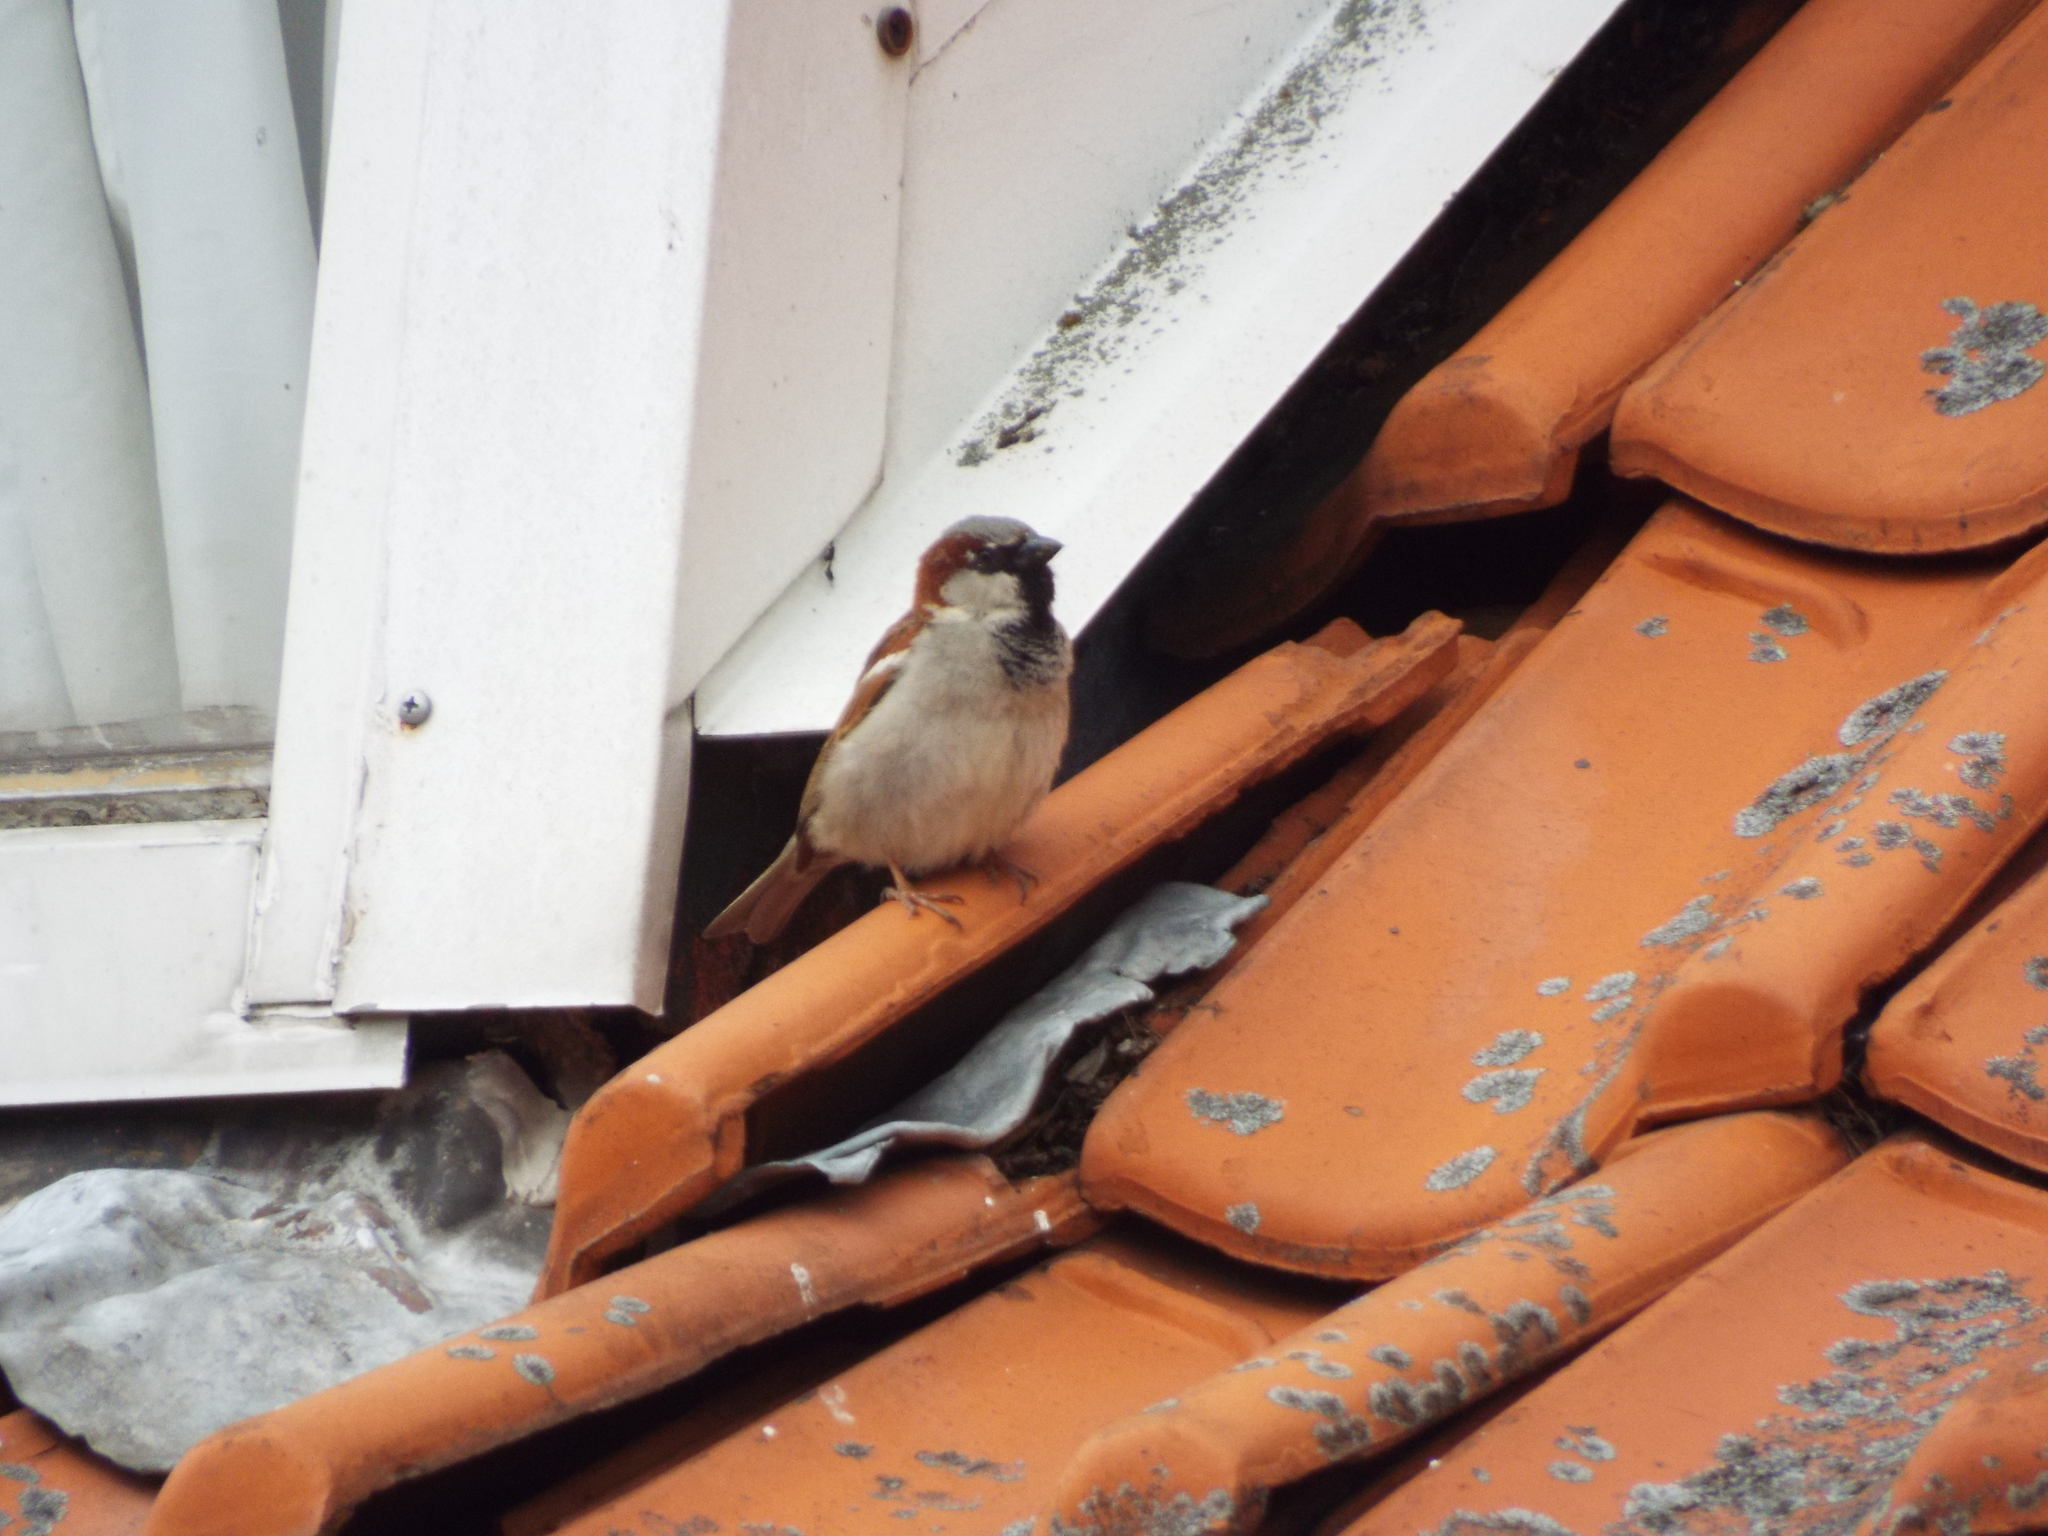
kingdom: Animalia
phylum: Chordata
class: Aves
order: Passeriformes
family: Passeridae
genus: Passer
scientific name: Passer domesticus
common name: House sparrow
